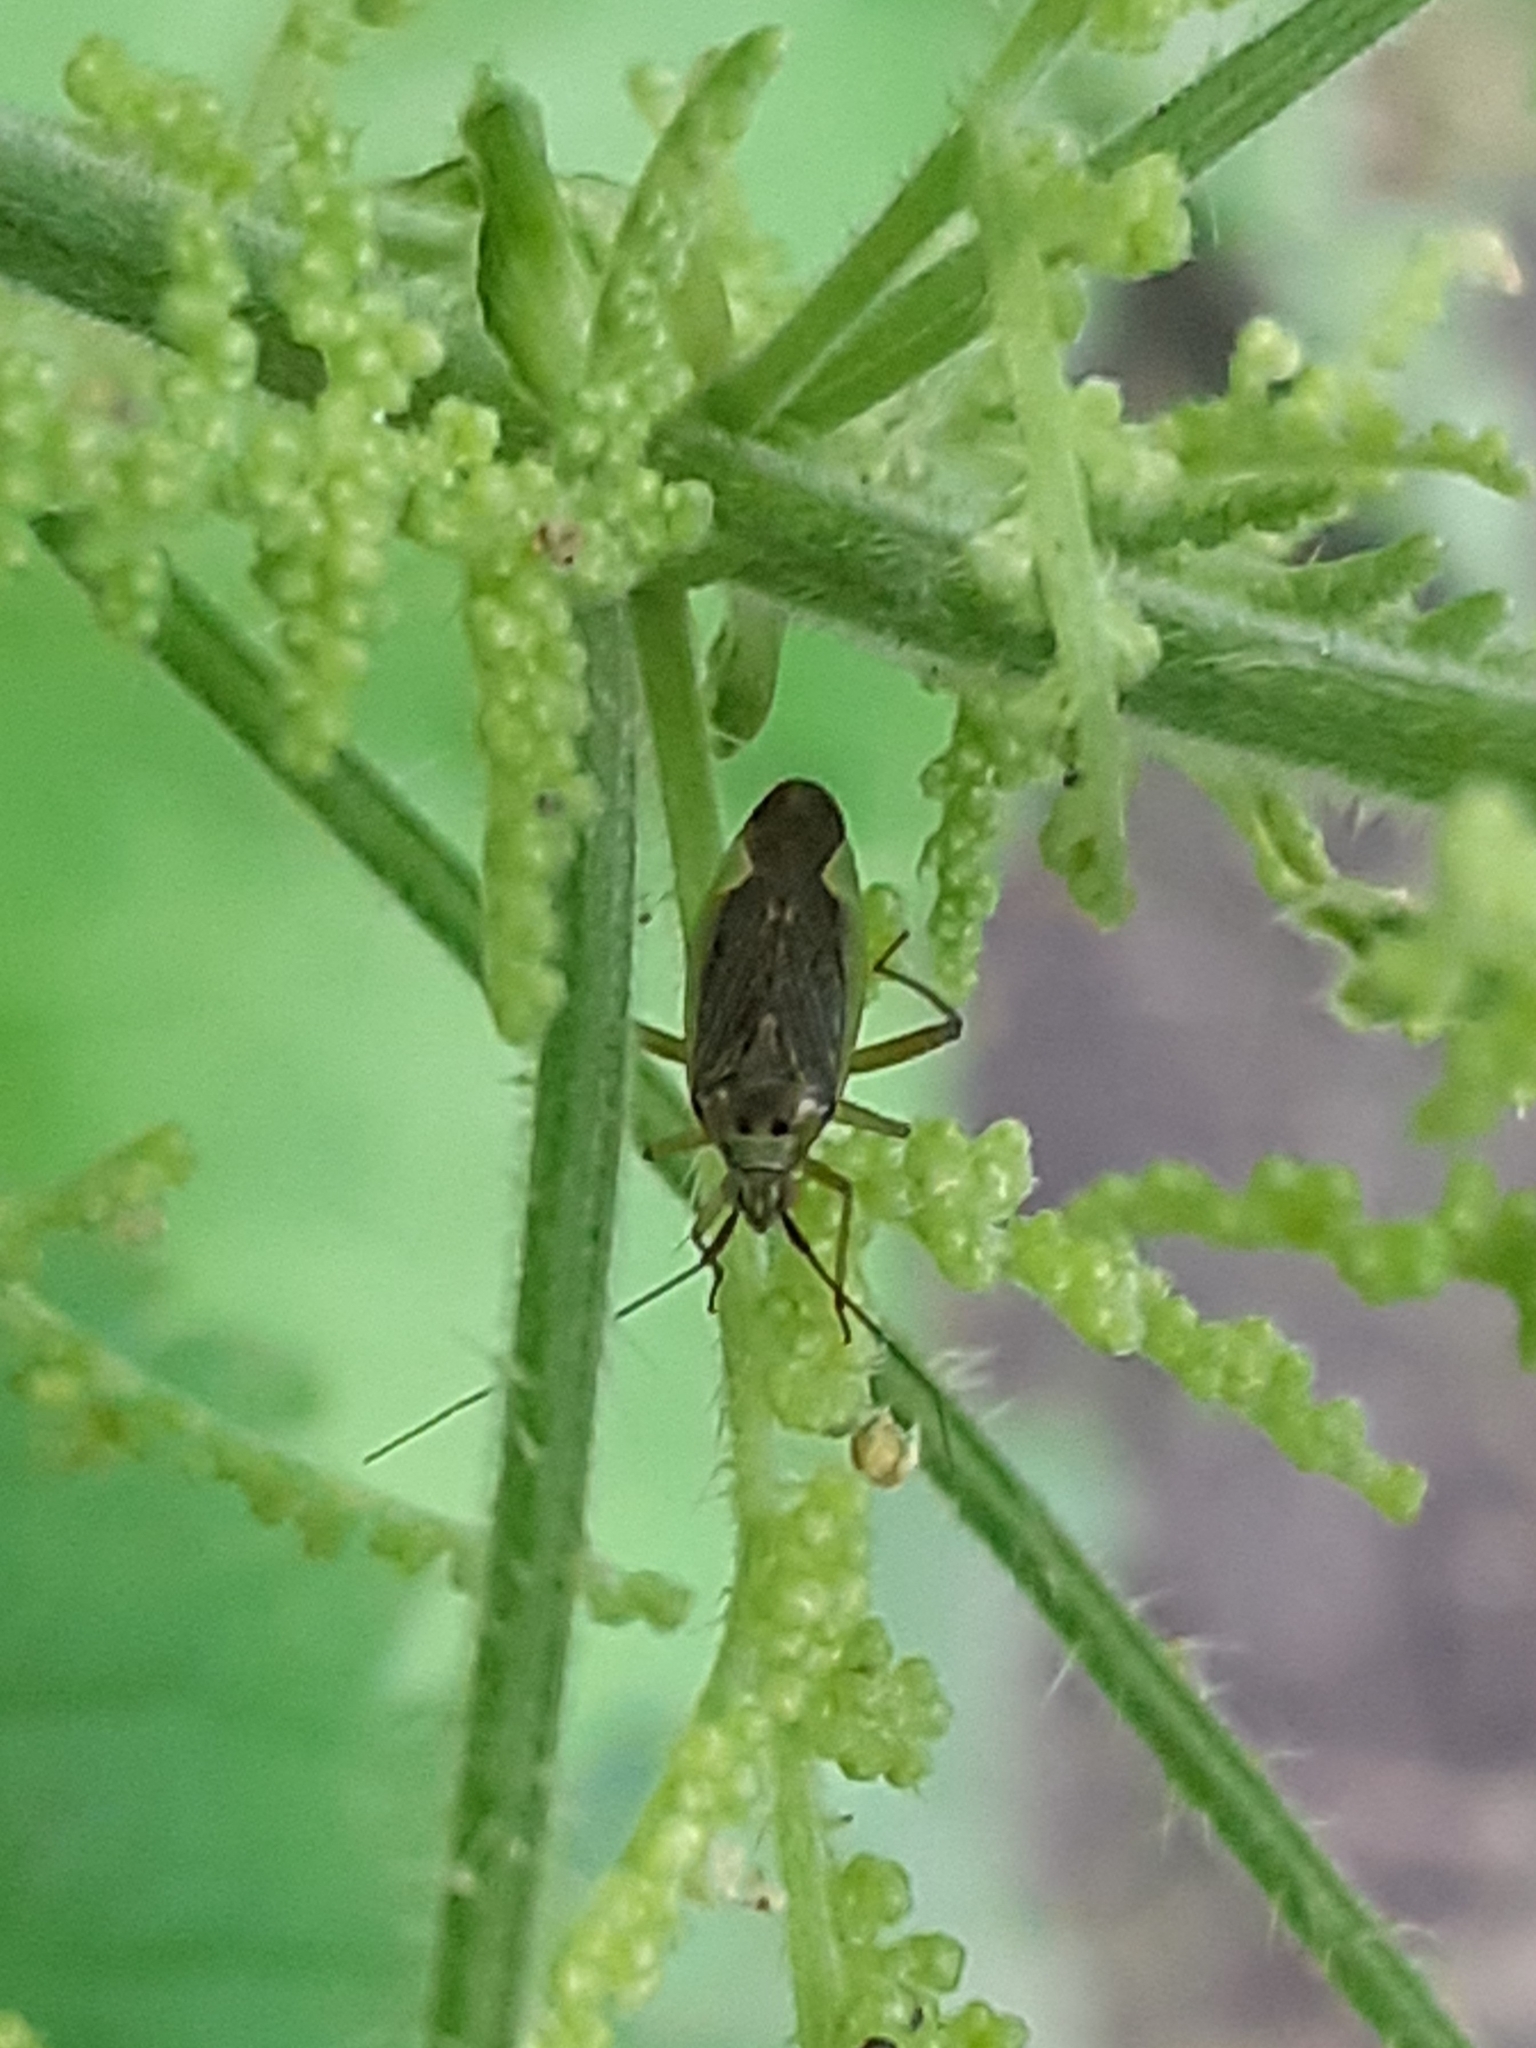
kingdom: Animalia
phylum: Arthropoda
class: Insecta
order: Hemiptera
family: Miridae
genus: Closterotomus
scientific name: Closterotomus trivialis
